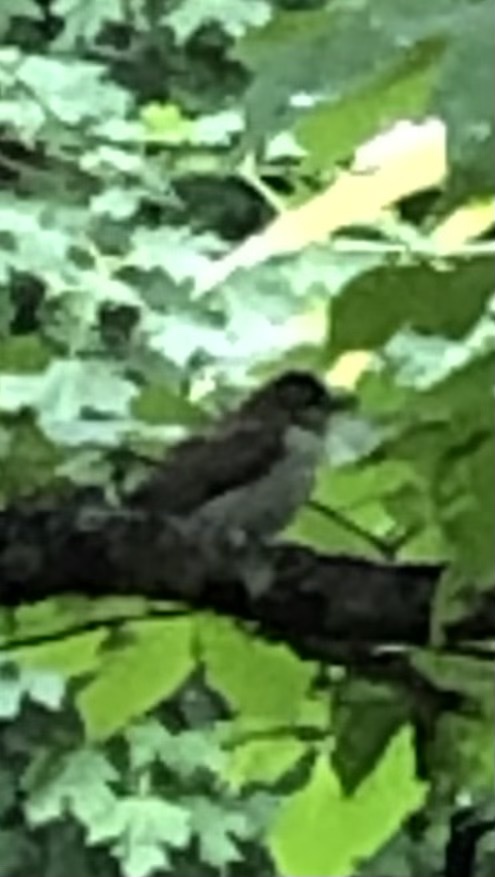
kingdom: Animalia
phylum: Chordata
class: Aves
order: Passeriformes
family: Vireonidae
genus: Vireo
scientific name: Vireo olivaceus
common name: Red-eyed vireo
